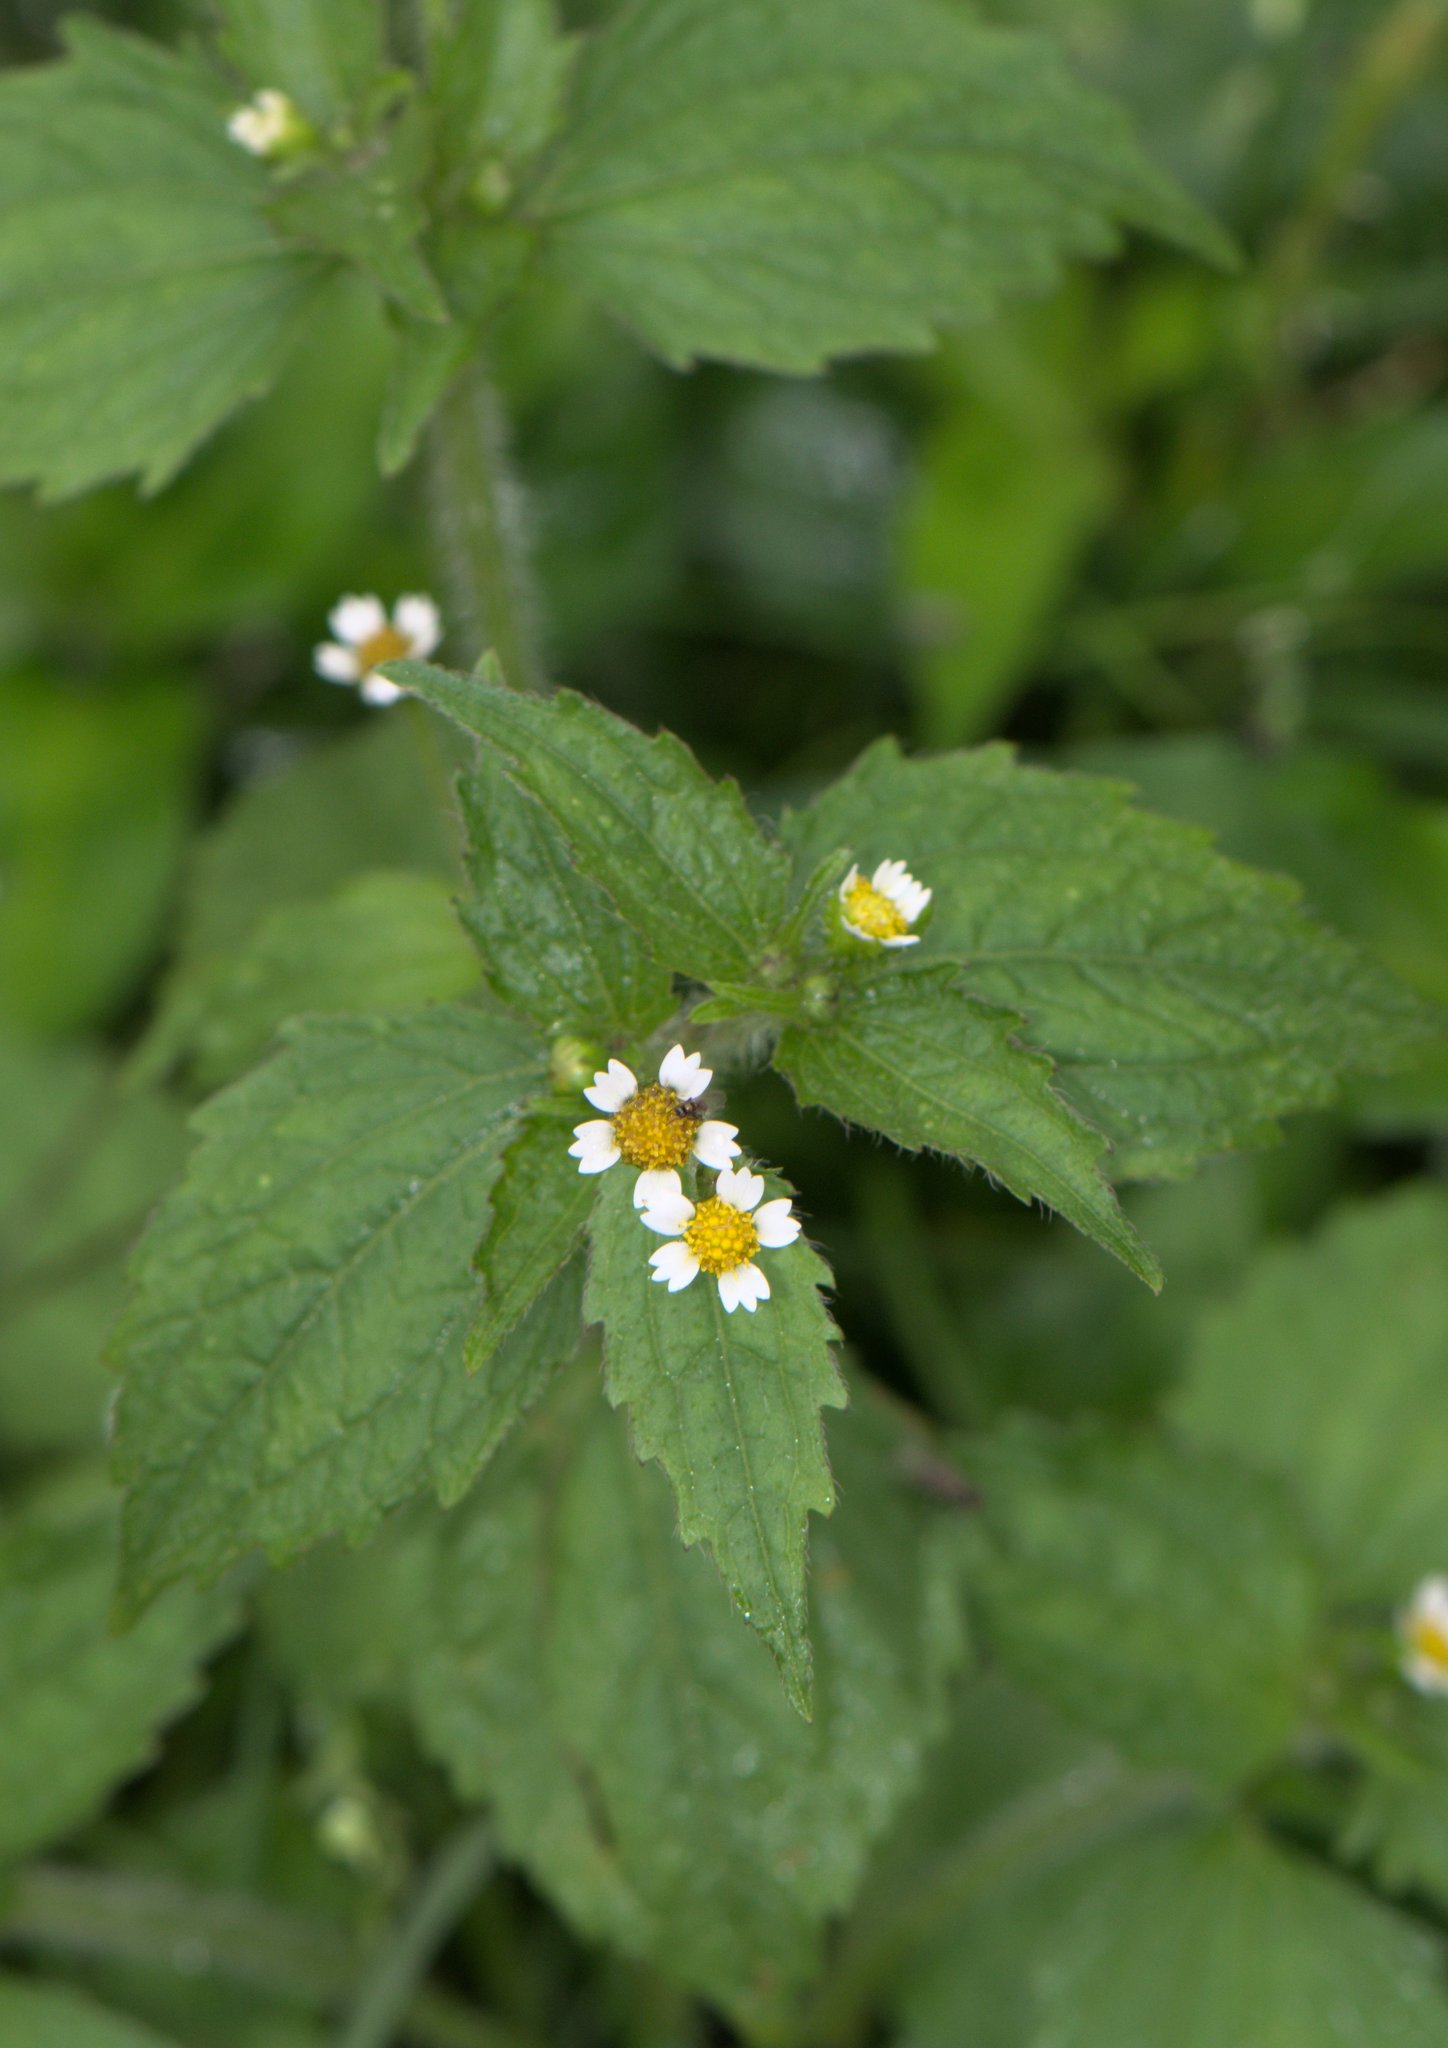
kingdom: Plantae
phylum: Tracheophyta
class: Magnoliopsida
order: Asterales
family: Asteraceae
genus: Galinsoga
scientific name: Galinsoga quadriradiata
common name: Shaggy soldier
